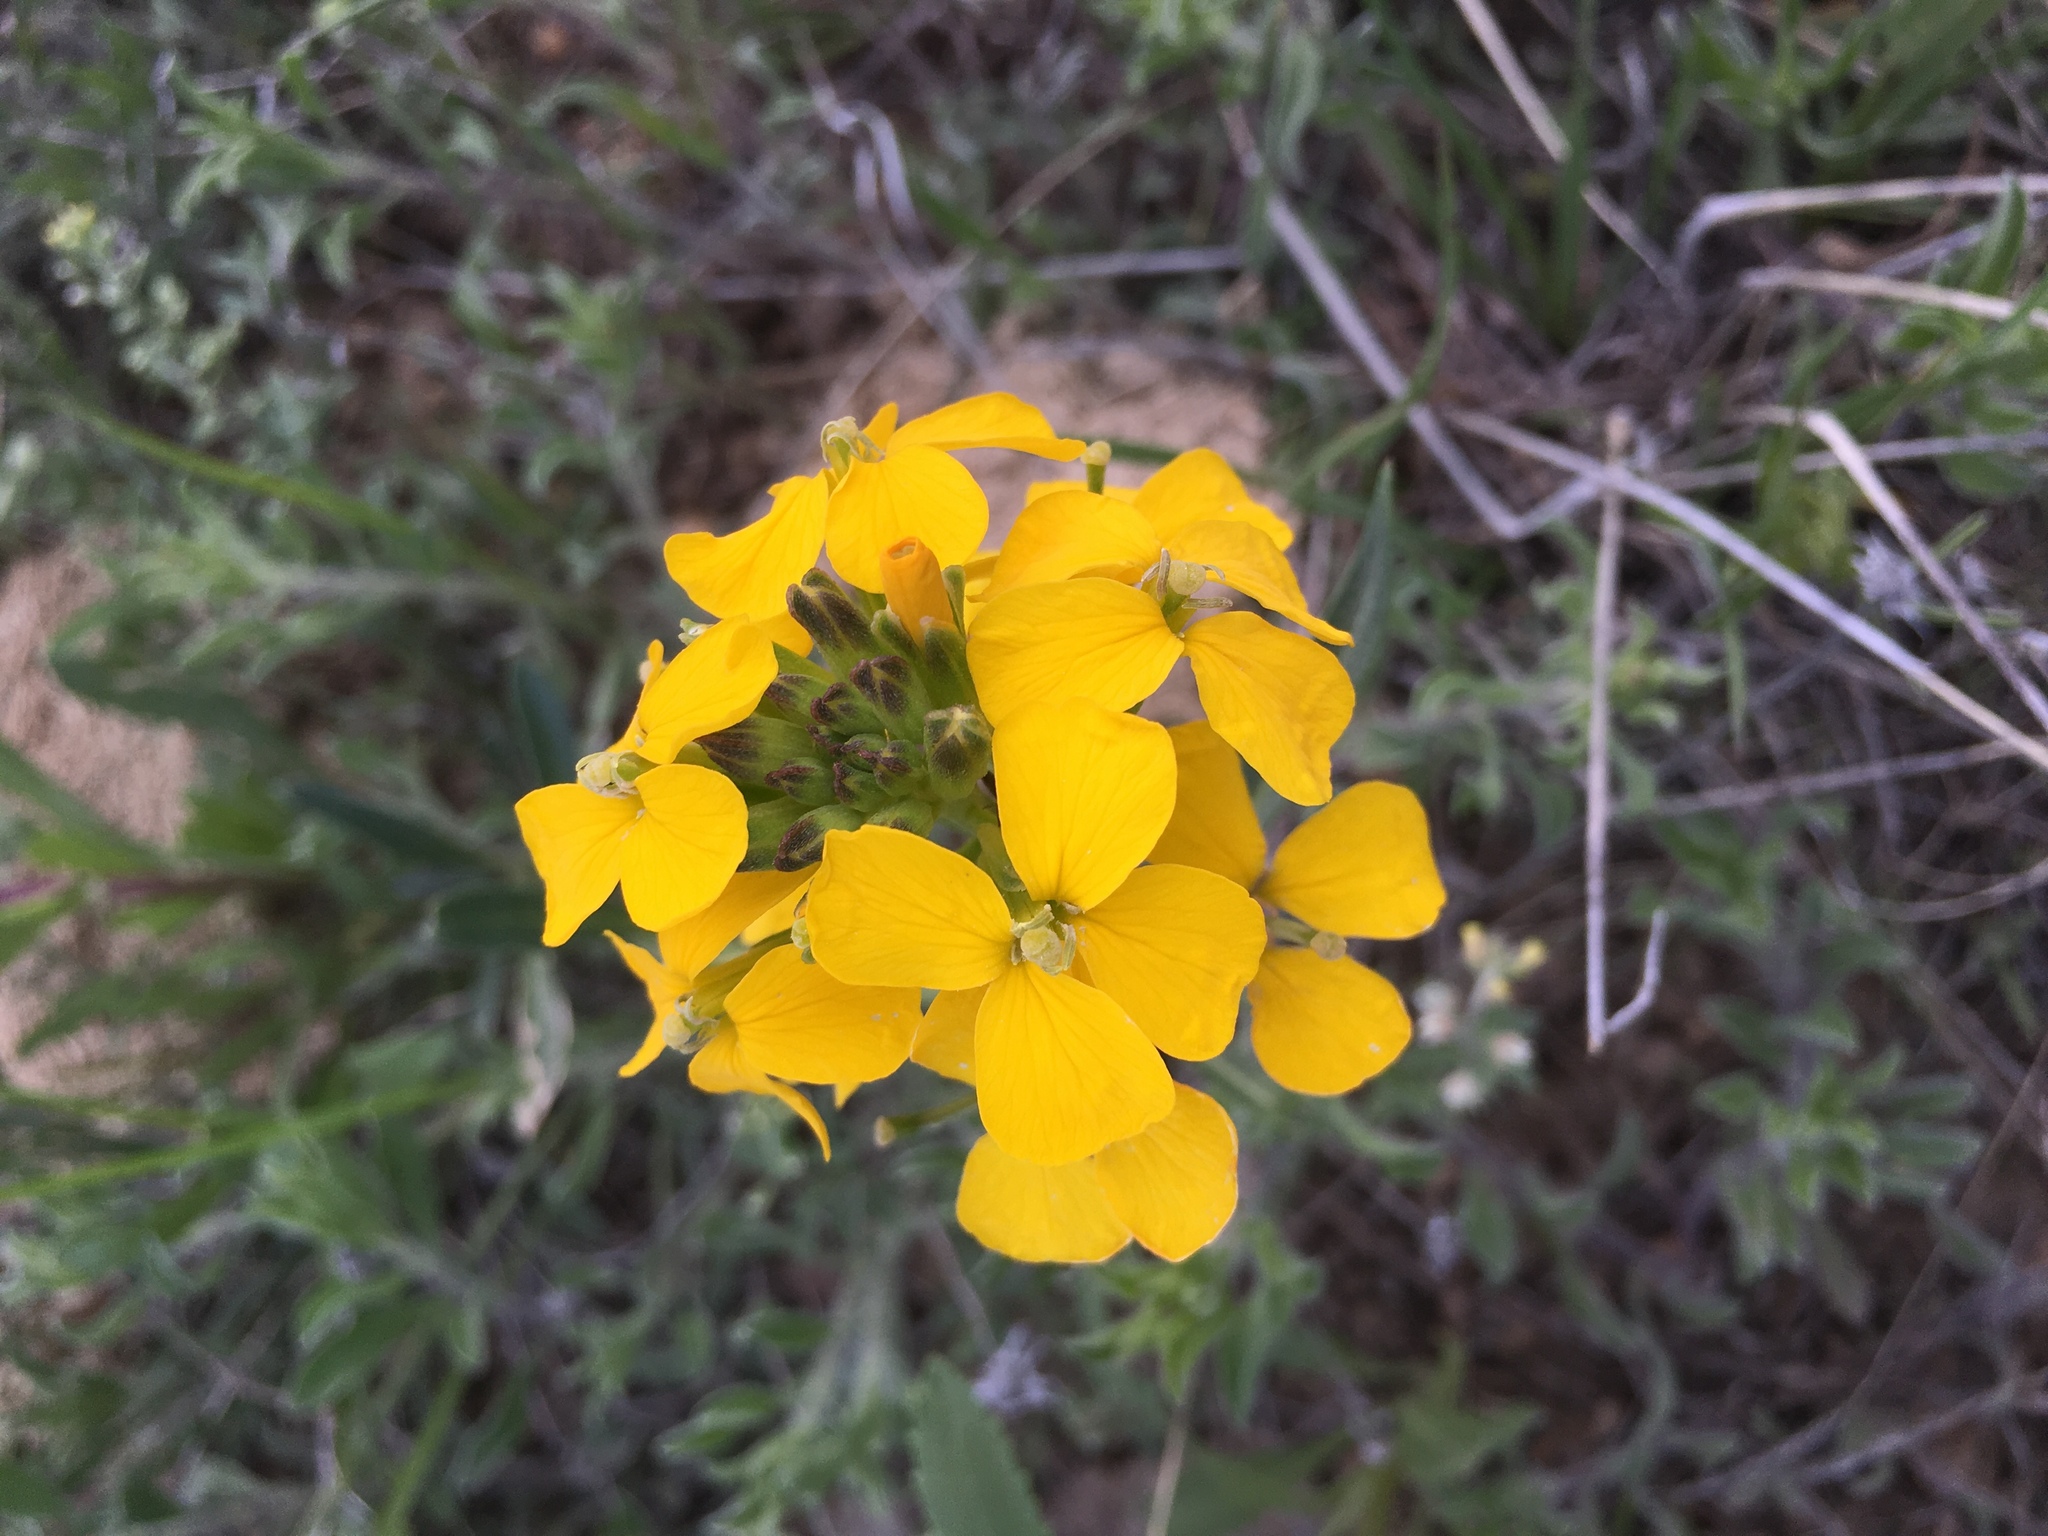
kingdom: Plantae
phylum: Tracheophyta
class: Magnoliopsida
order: Brassicales
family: Brassicaceae
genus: Erysimum
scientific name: Erysimum capitatum
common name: Western wallflower
